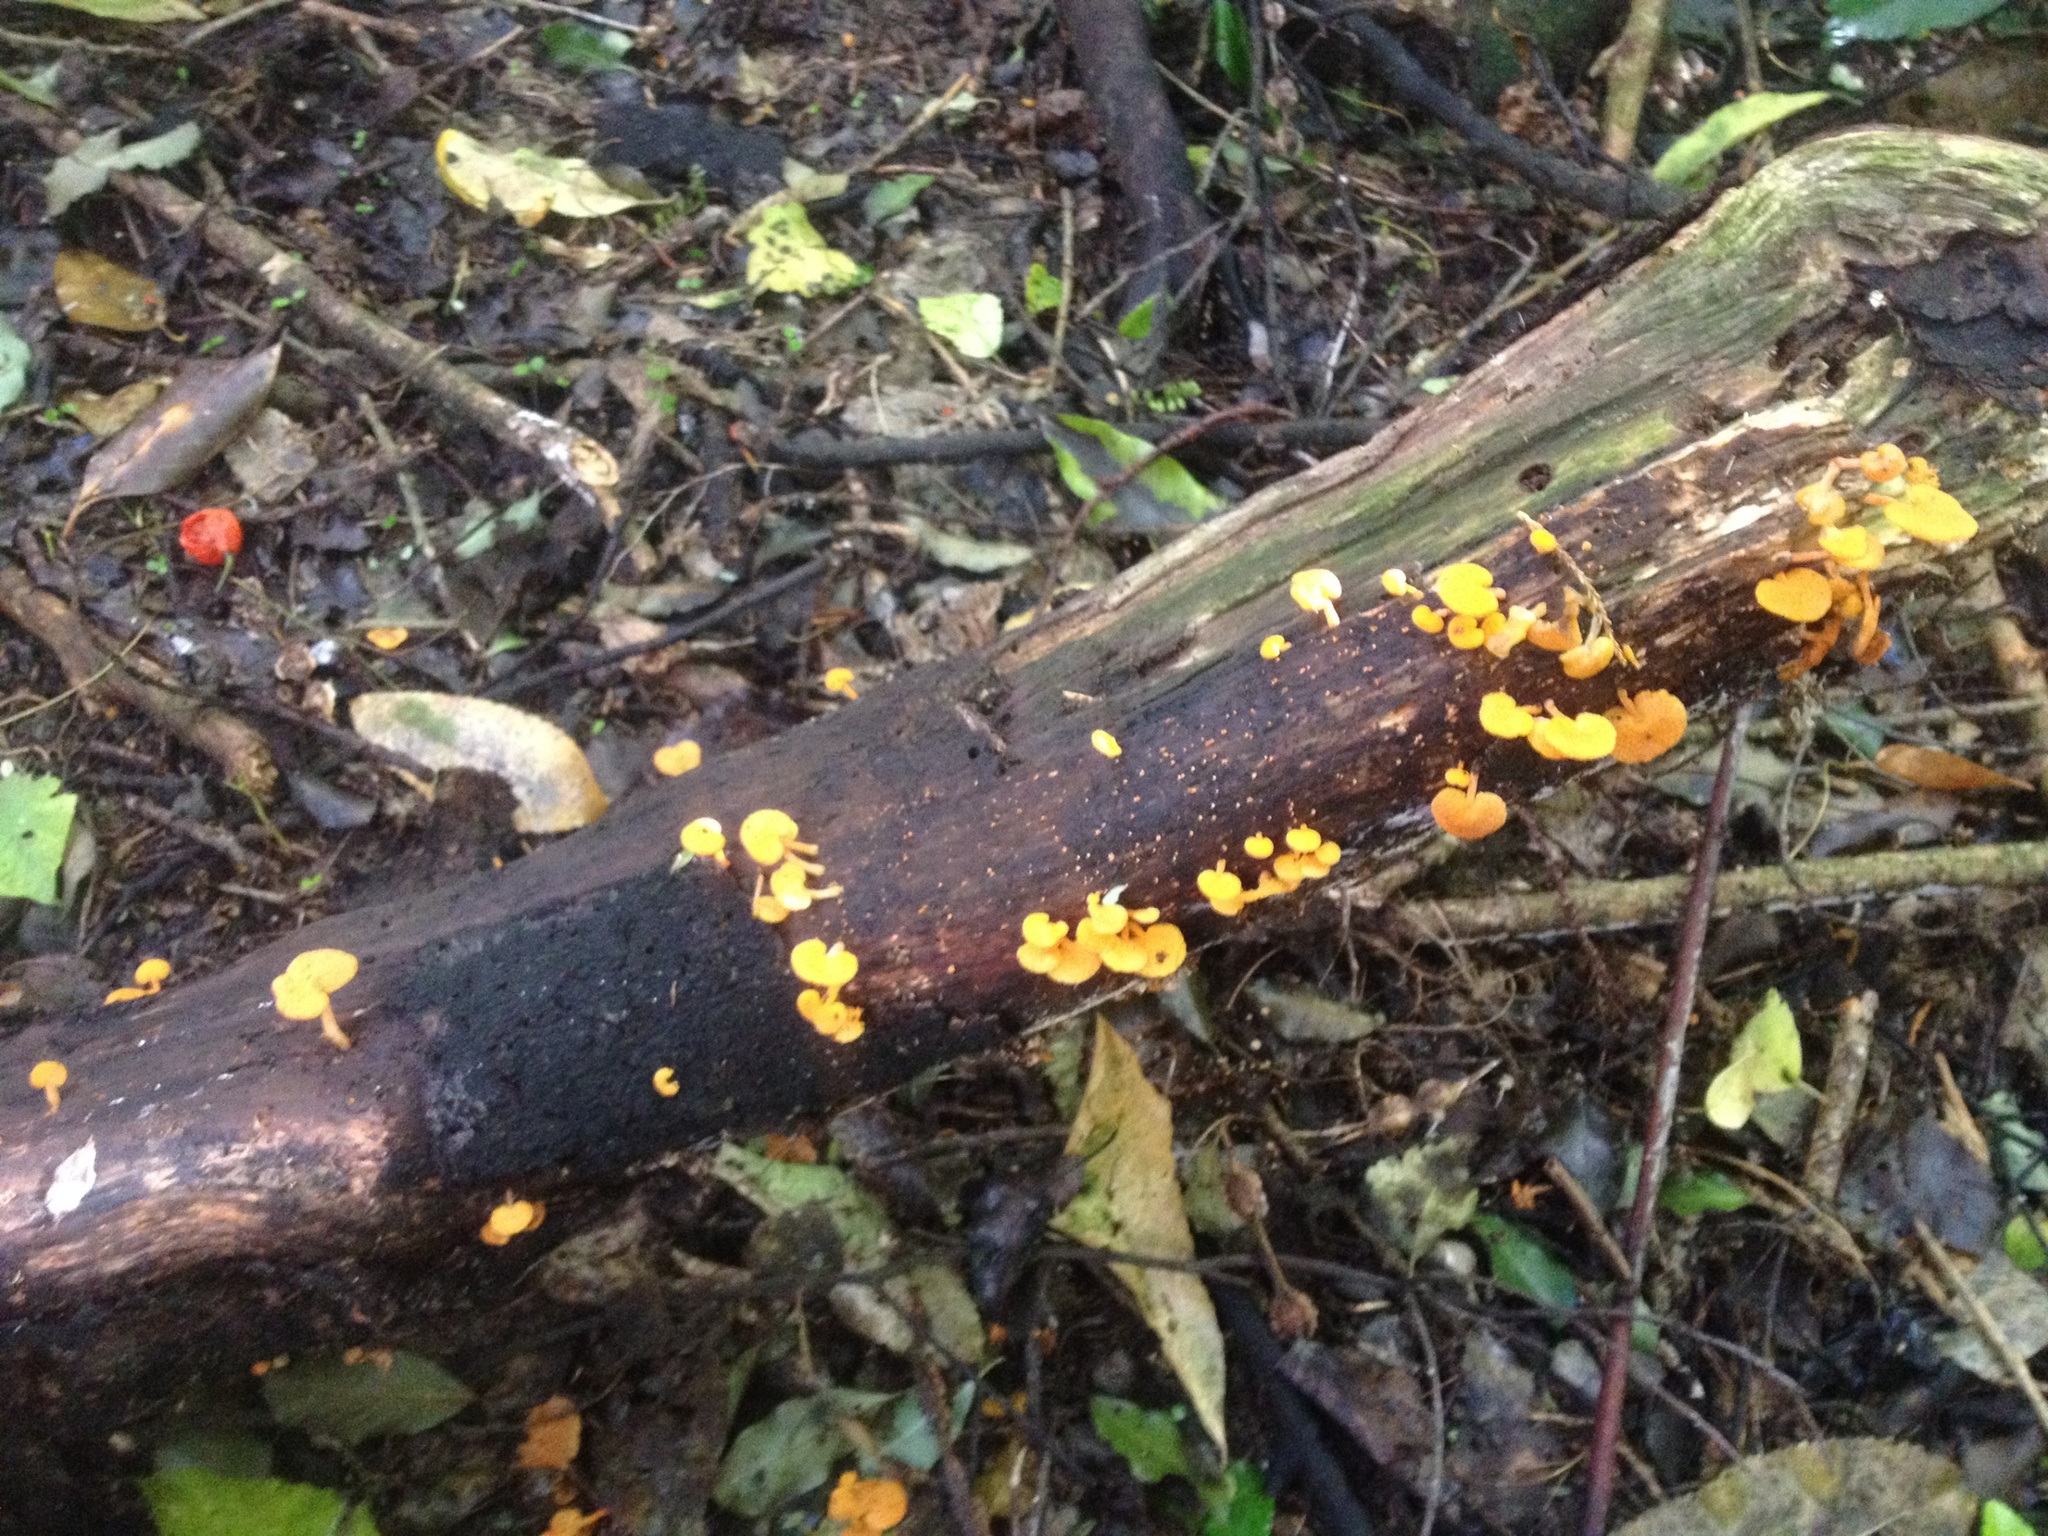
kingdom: Fungi
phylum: Basidiomycota
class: Agaricomycetes
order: Agaricales
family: Mycenaceae
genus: Favolaschia
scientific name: Favolaschia claudopus
